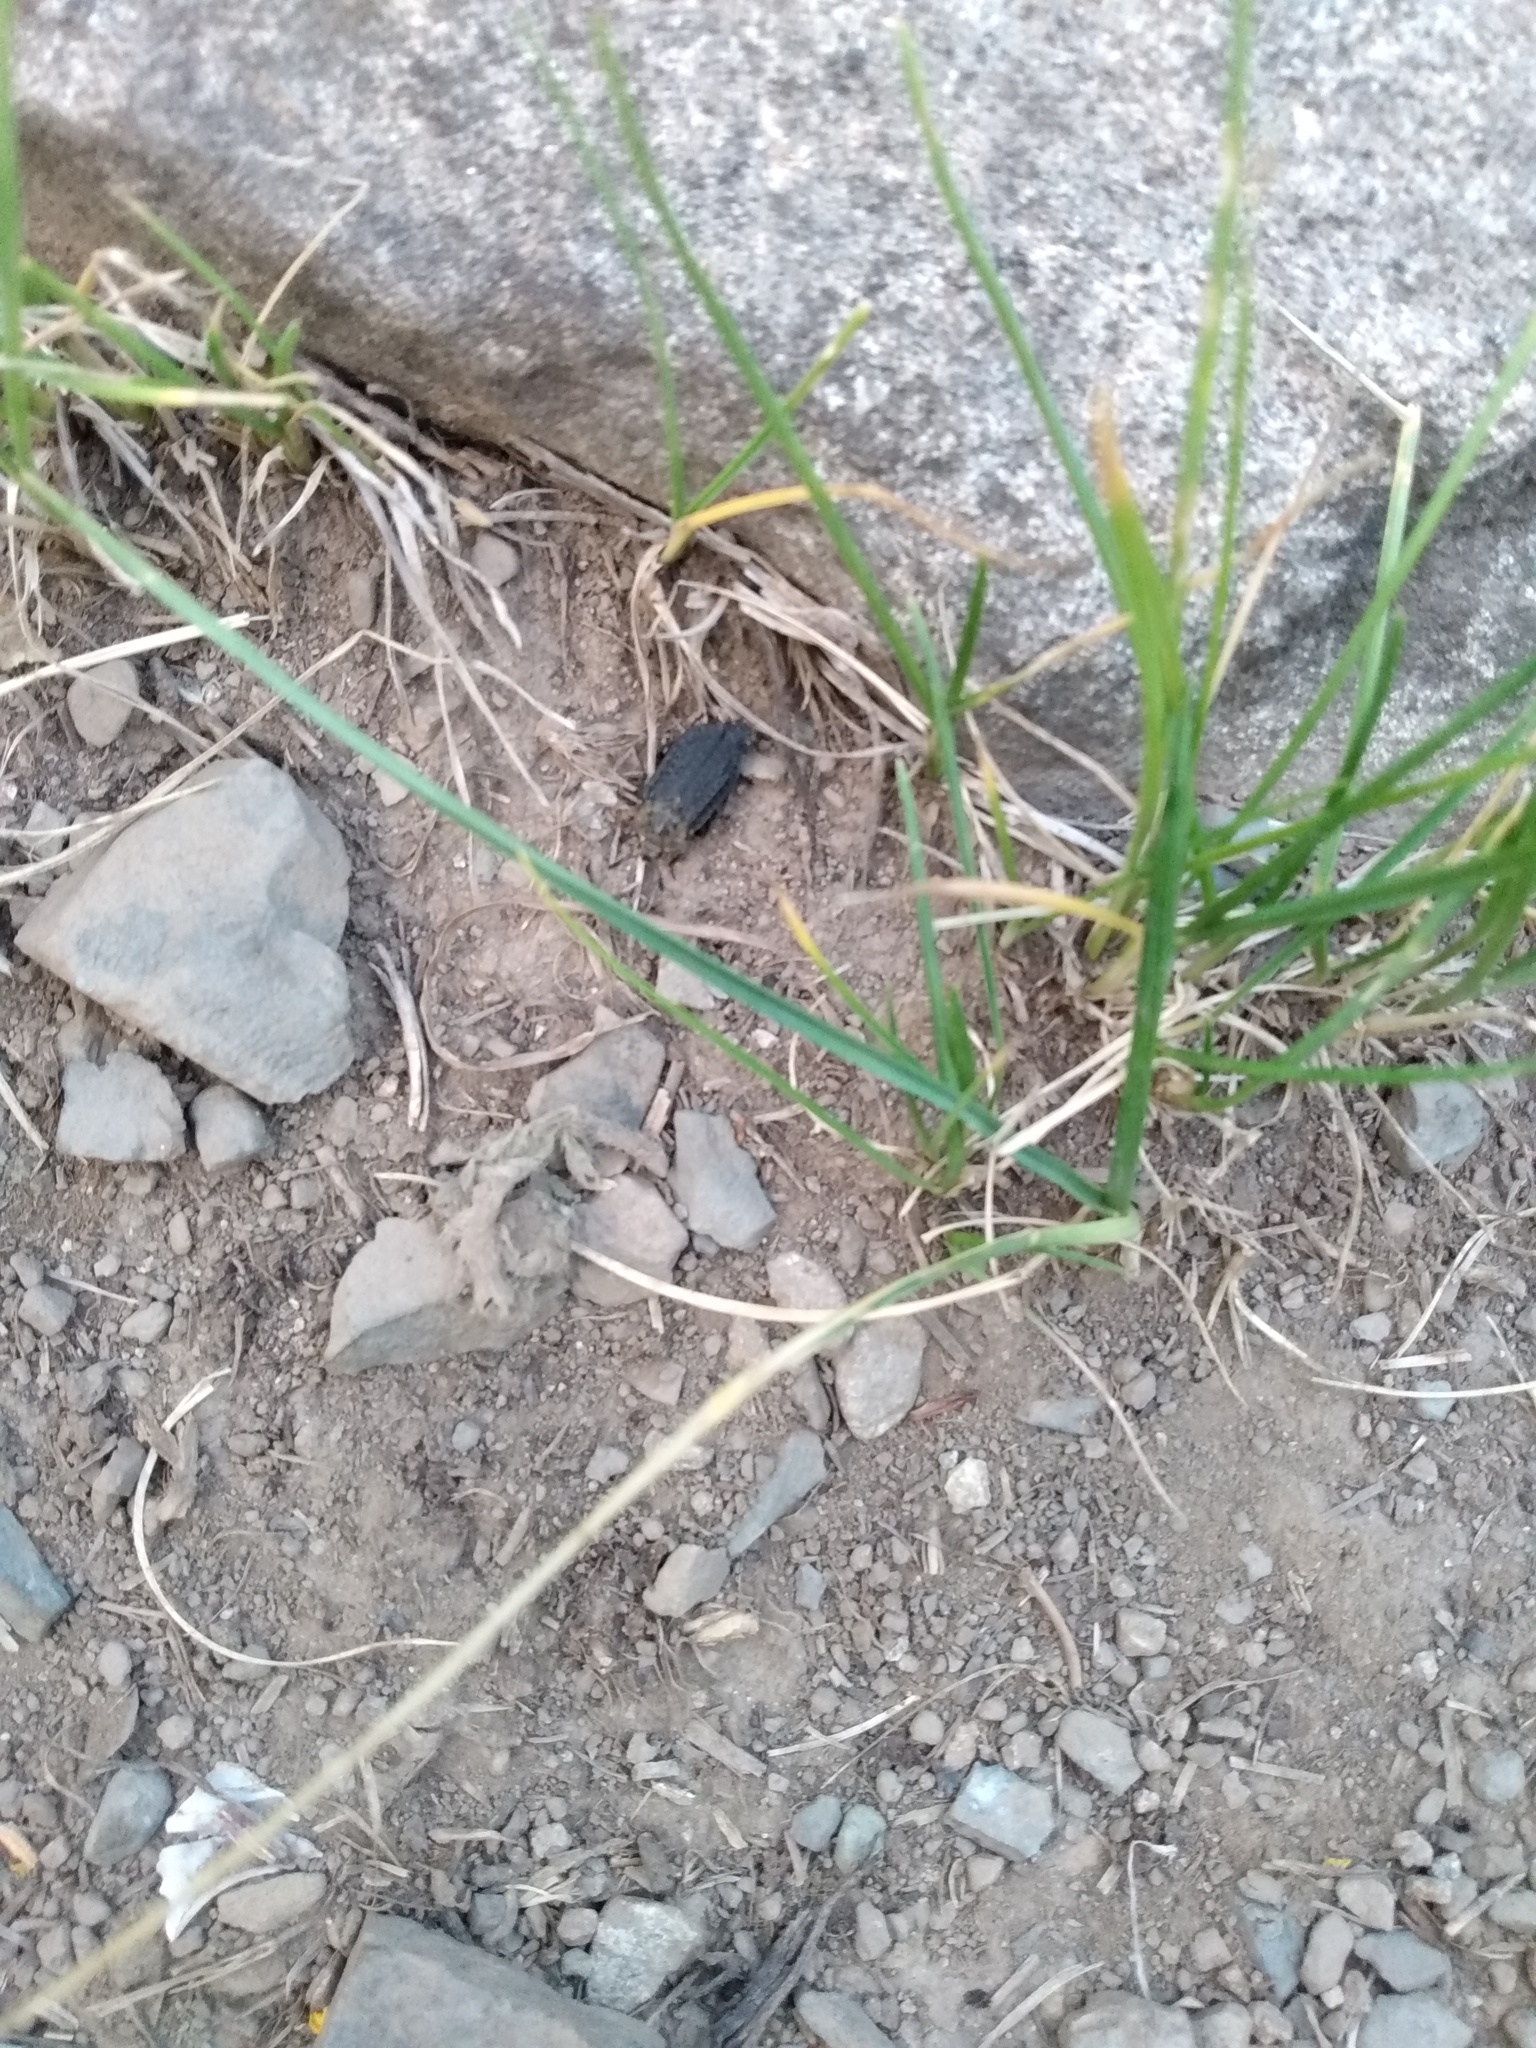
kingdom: Animalia
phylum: Arthropoda
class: Insecta
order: Coleoptera
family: Staphylinidae
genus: Thanatophilus
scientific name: Thanatophilus lapponicus
